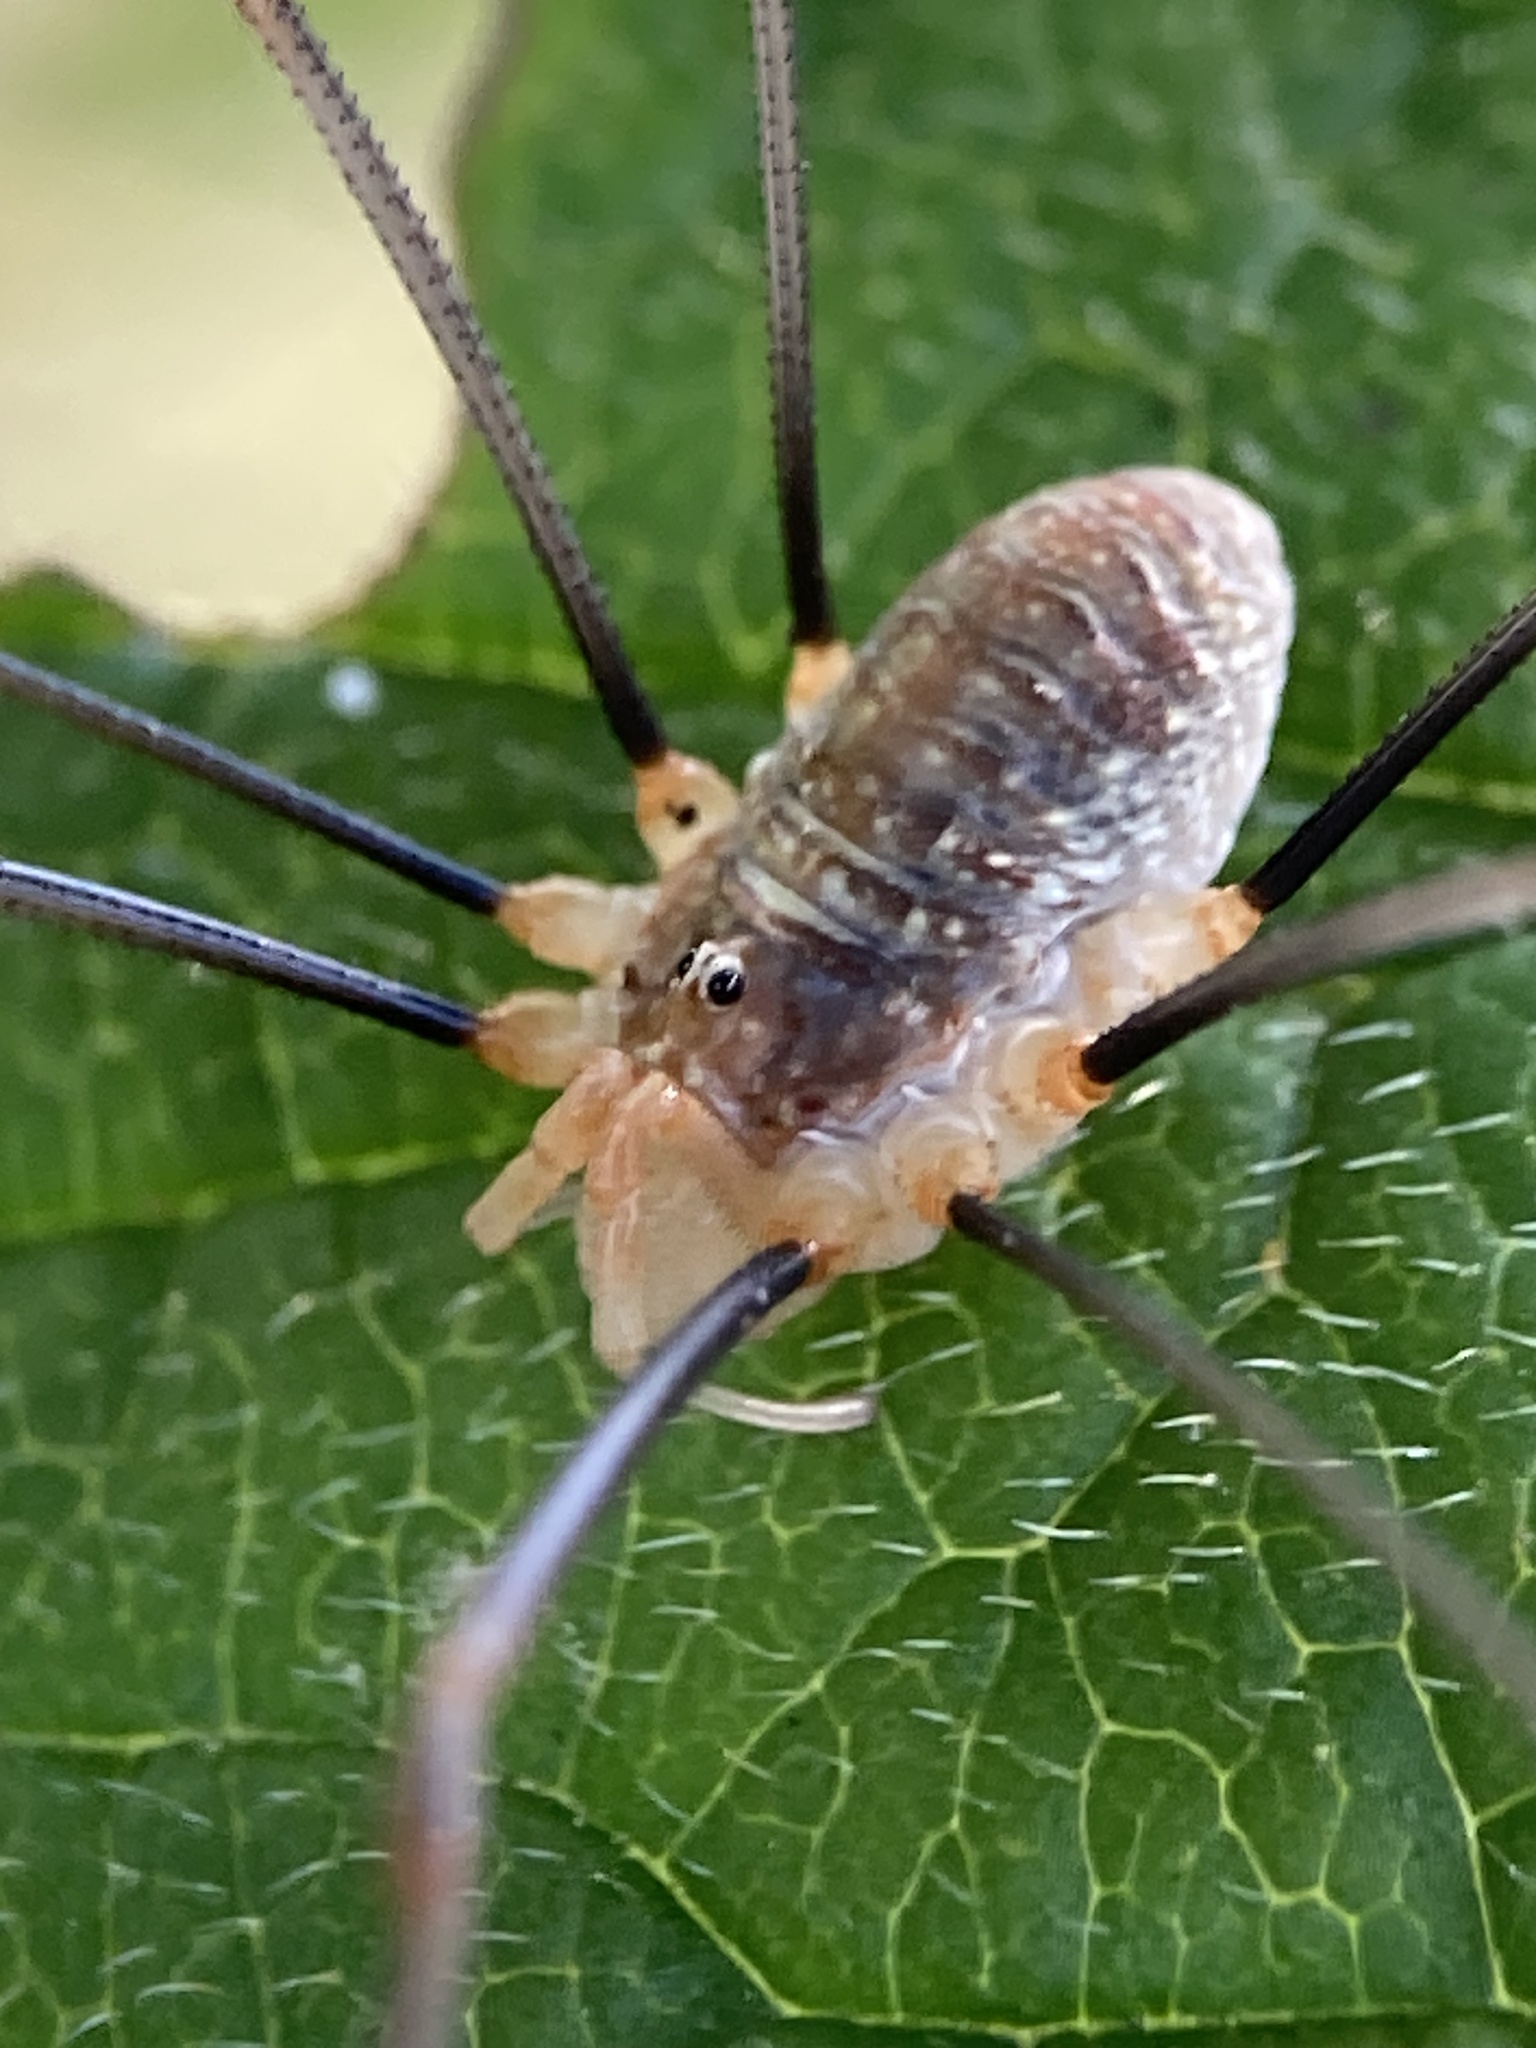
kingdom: Animalia
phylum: Arthropoda
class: Arachnida
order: Opiliones
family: Phalangiidae
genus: Opilio
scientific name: Opilio canestrinii
